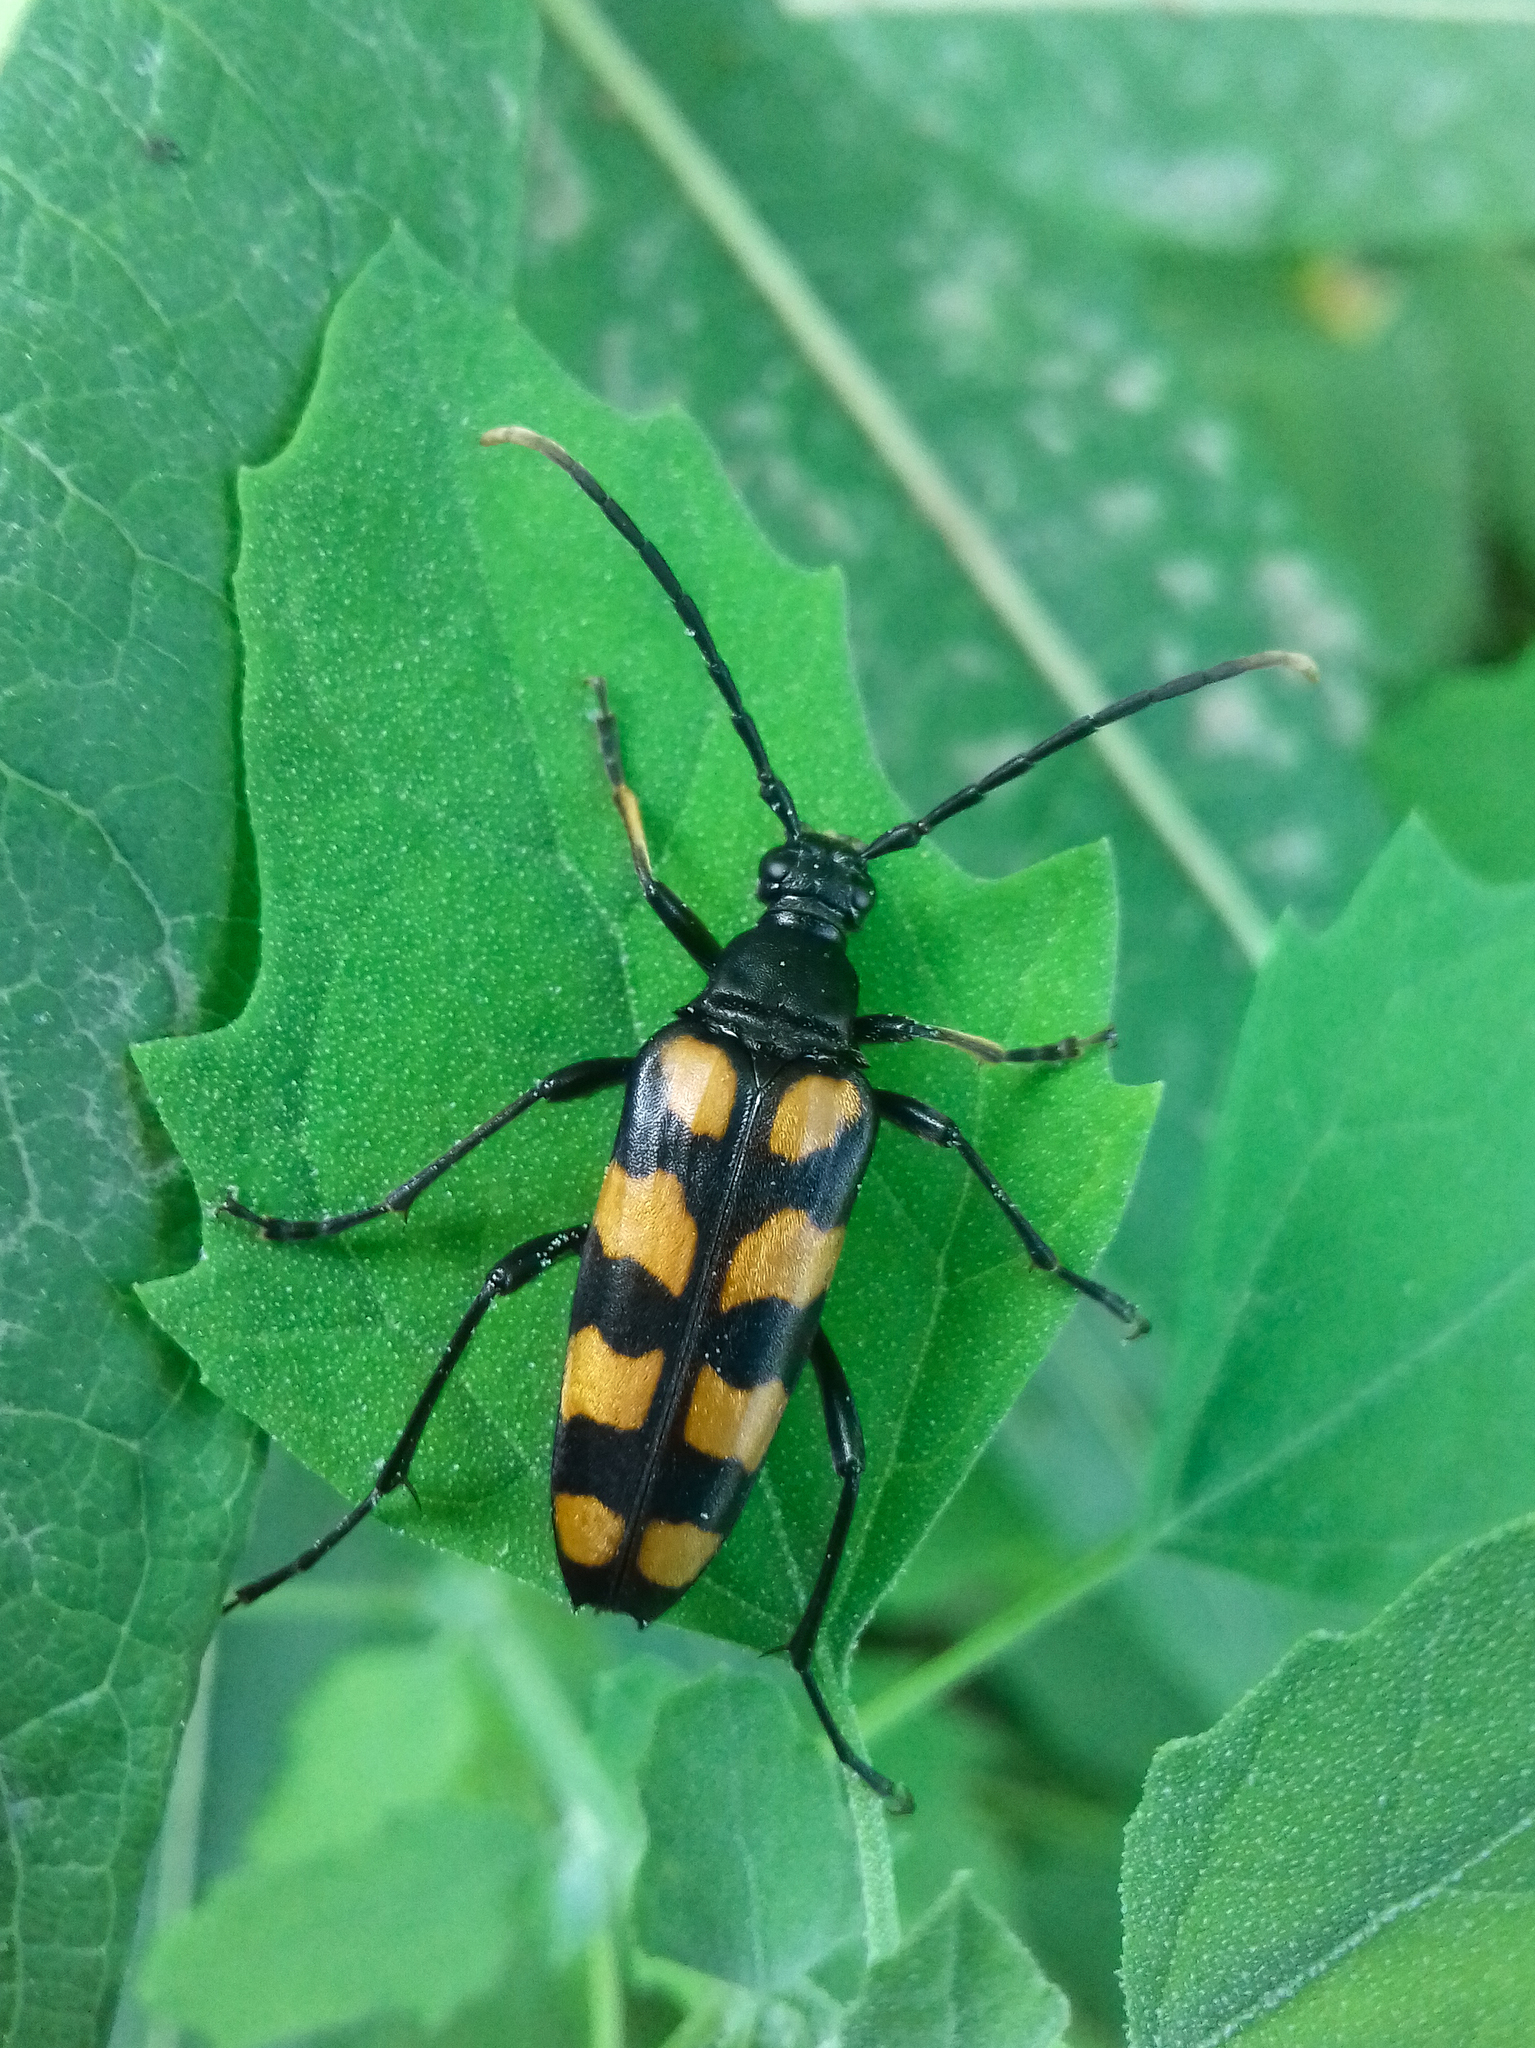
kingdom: Animalia
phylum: Arthropoda
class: Insecta
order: Coleoptera
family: Cerambycidae
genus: Leptura
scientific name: Leptura quadrifasciata
